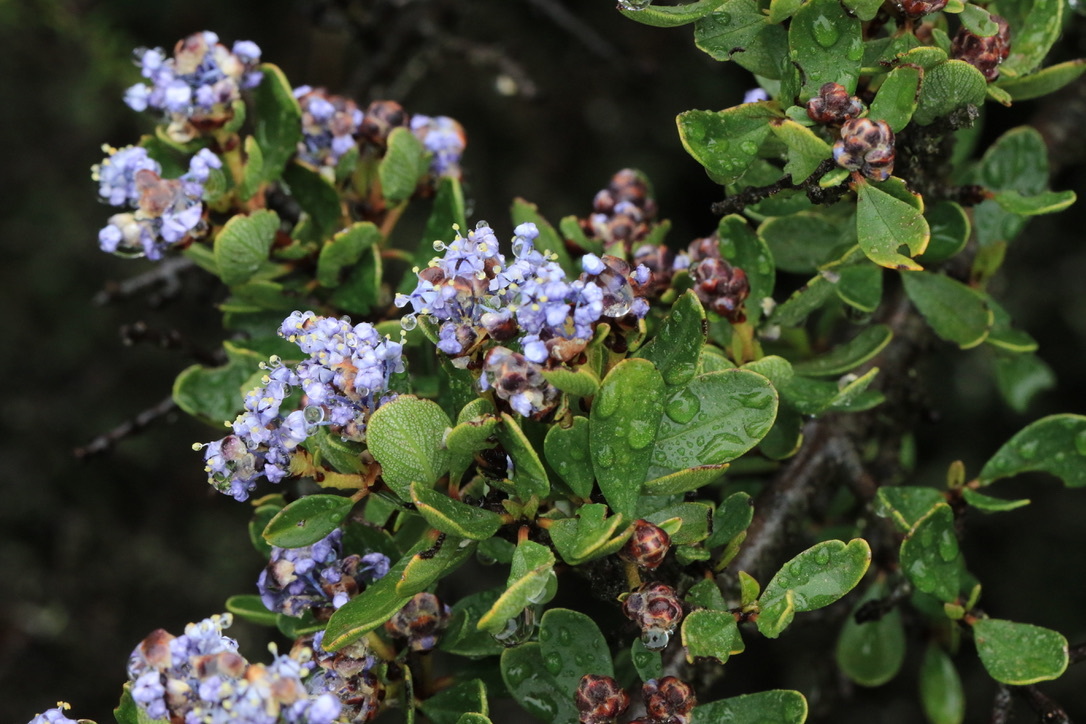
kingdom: Plantae
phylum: Tracheophyta
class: Magnoliopsida
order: Rosales
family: Rhamnaceae
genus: Ceanothus
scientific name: Ceanothus cuneatus
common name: Cuneate ceanothus
